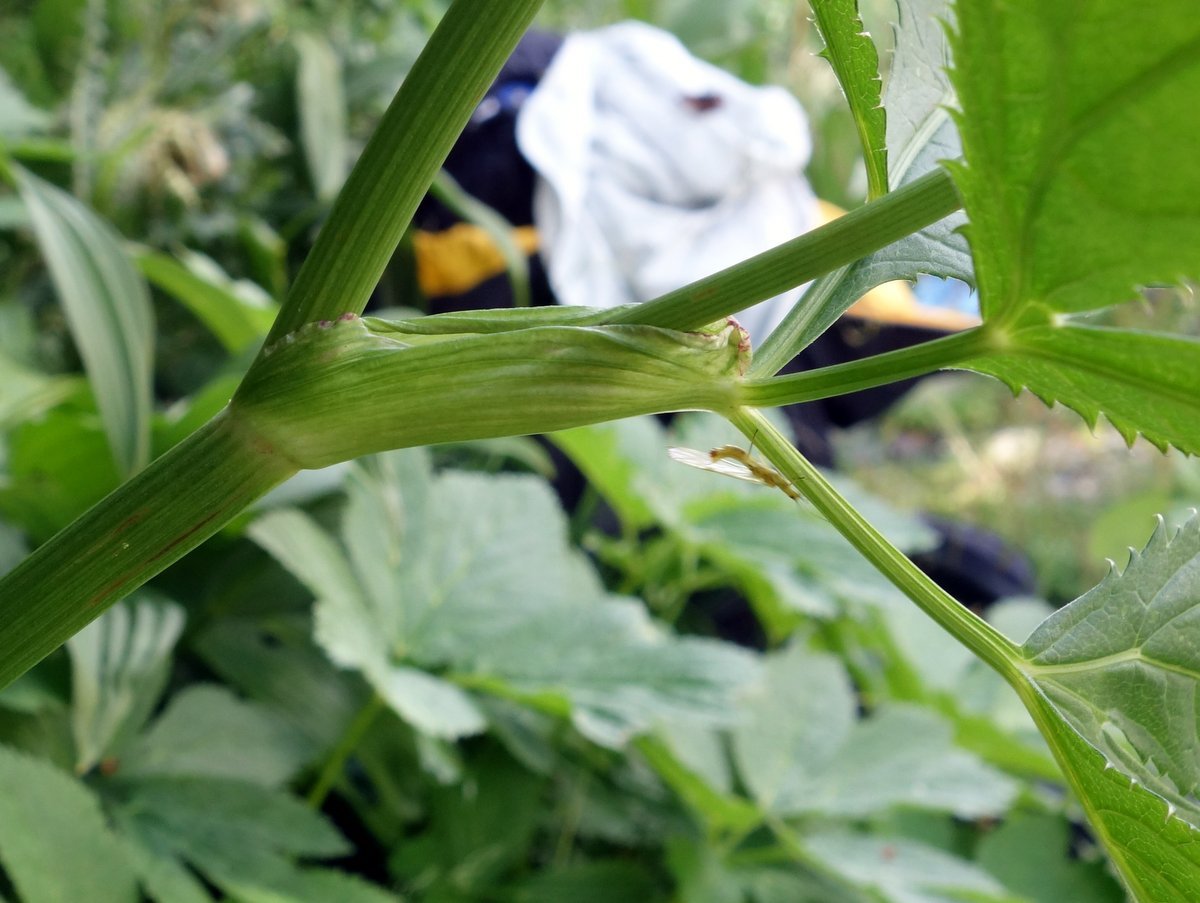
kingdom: Plantae
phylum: Tracheophyta
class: Magnoliopsida
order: Apiales
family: Apiaceae
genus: Imperatoria
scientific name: Imperatoria ostruthium
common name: Masterwort
